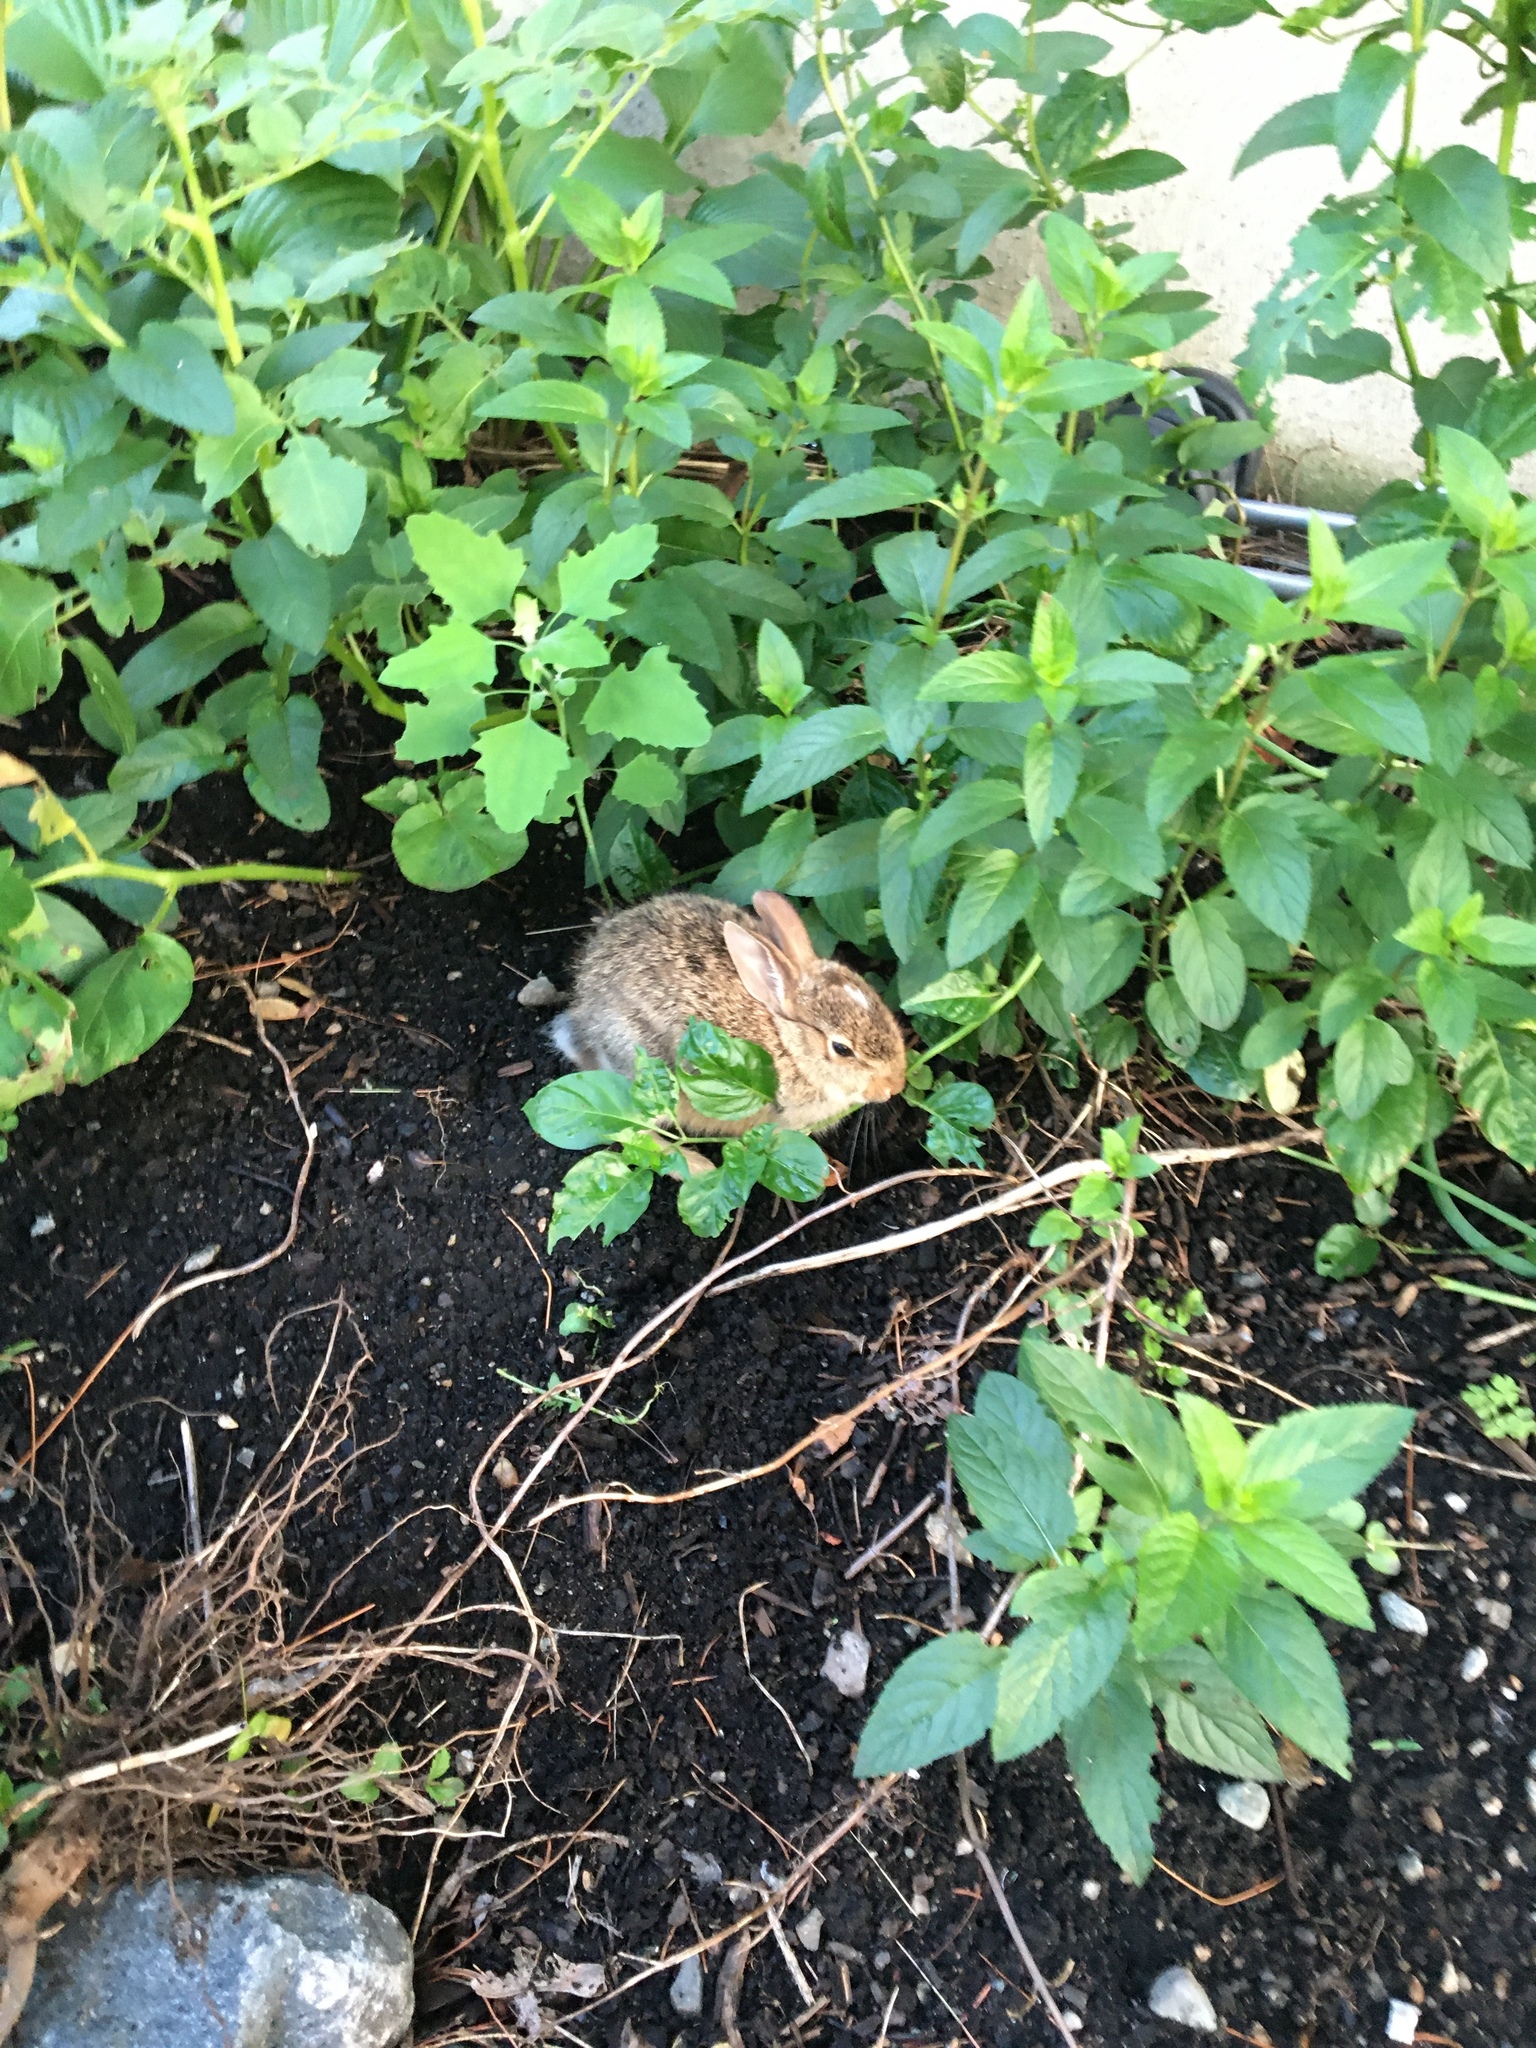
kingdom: Animalia
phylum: Chordata
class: Mammalia
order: Lagomorpha
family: Leporidae
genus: Sylvilagus
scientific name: Sylvilagus floridanus
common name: Eastern cottontail
